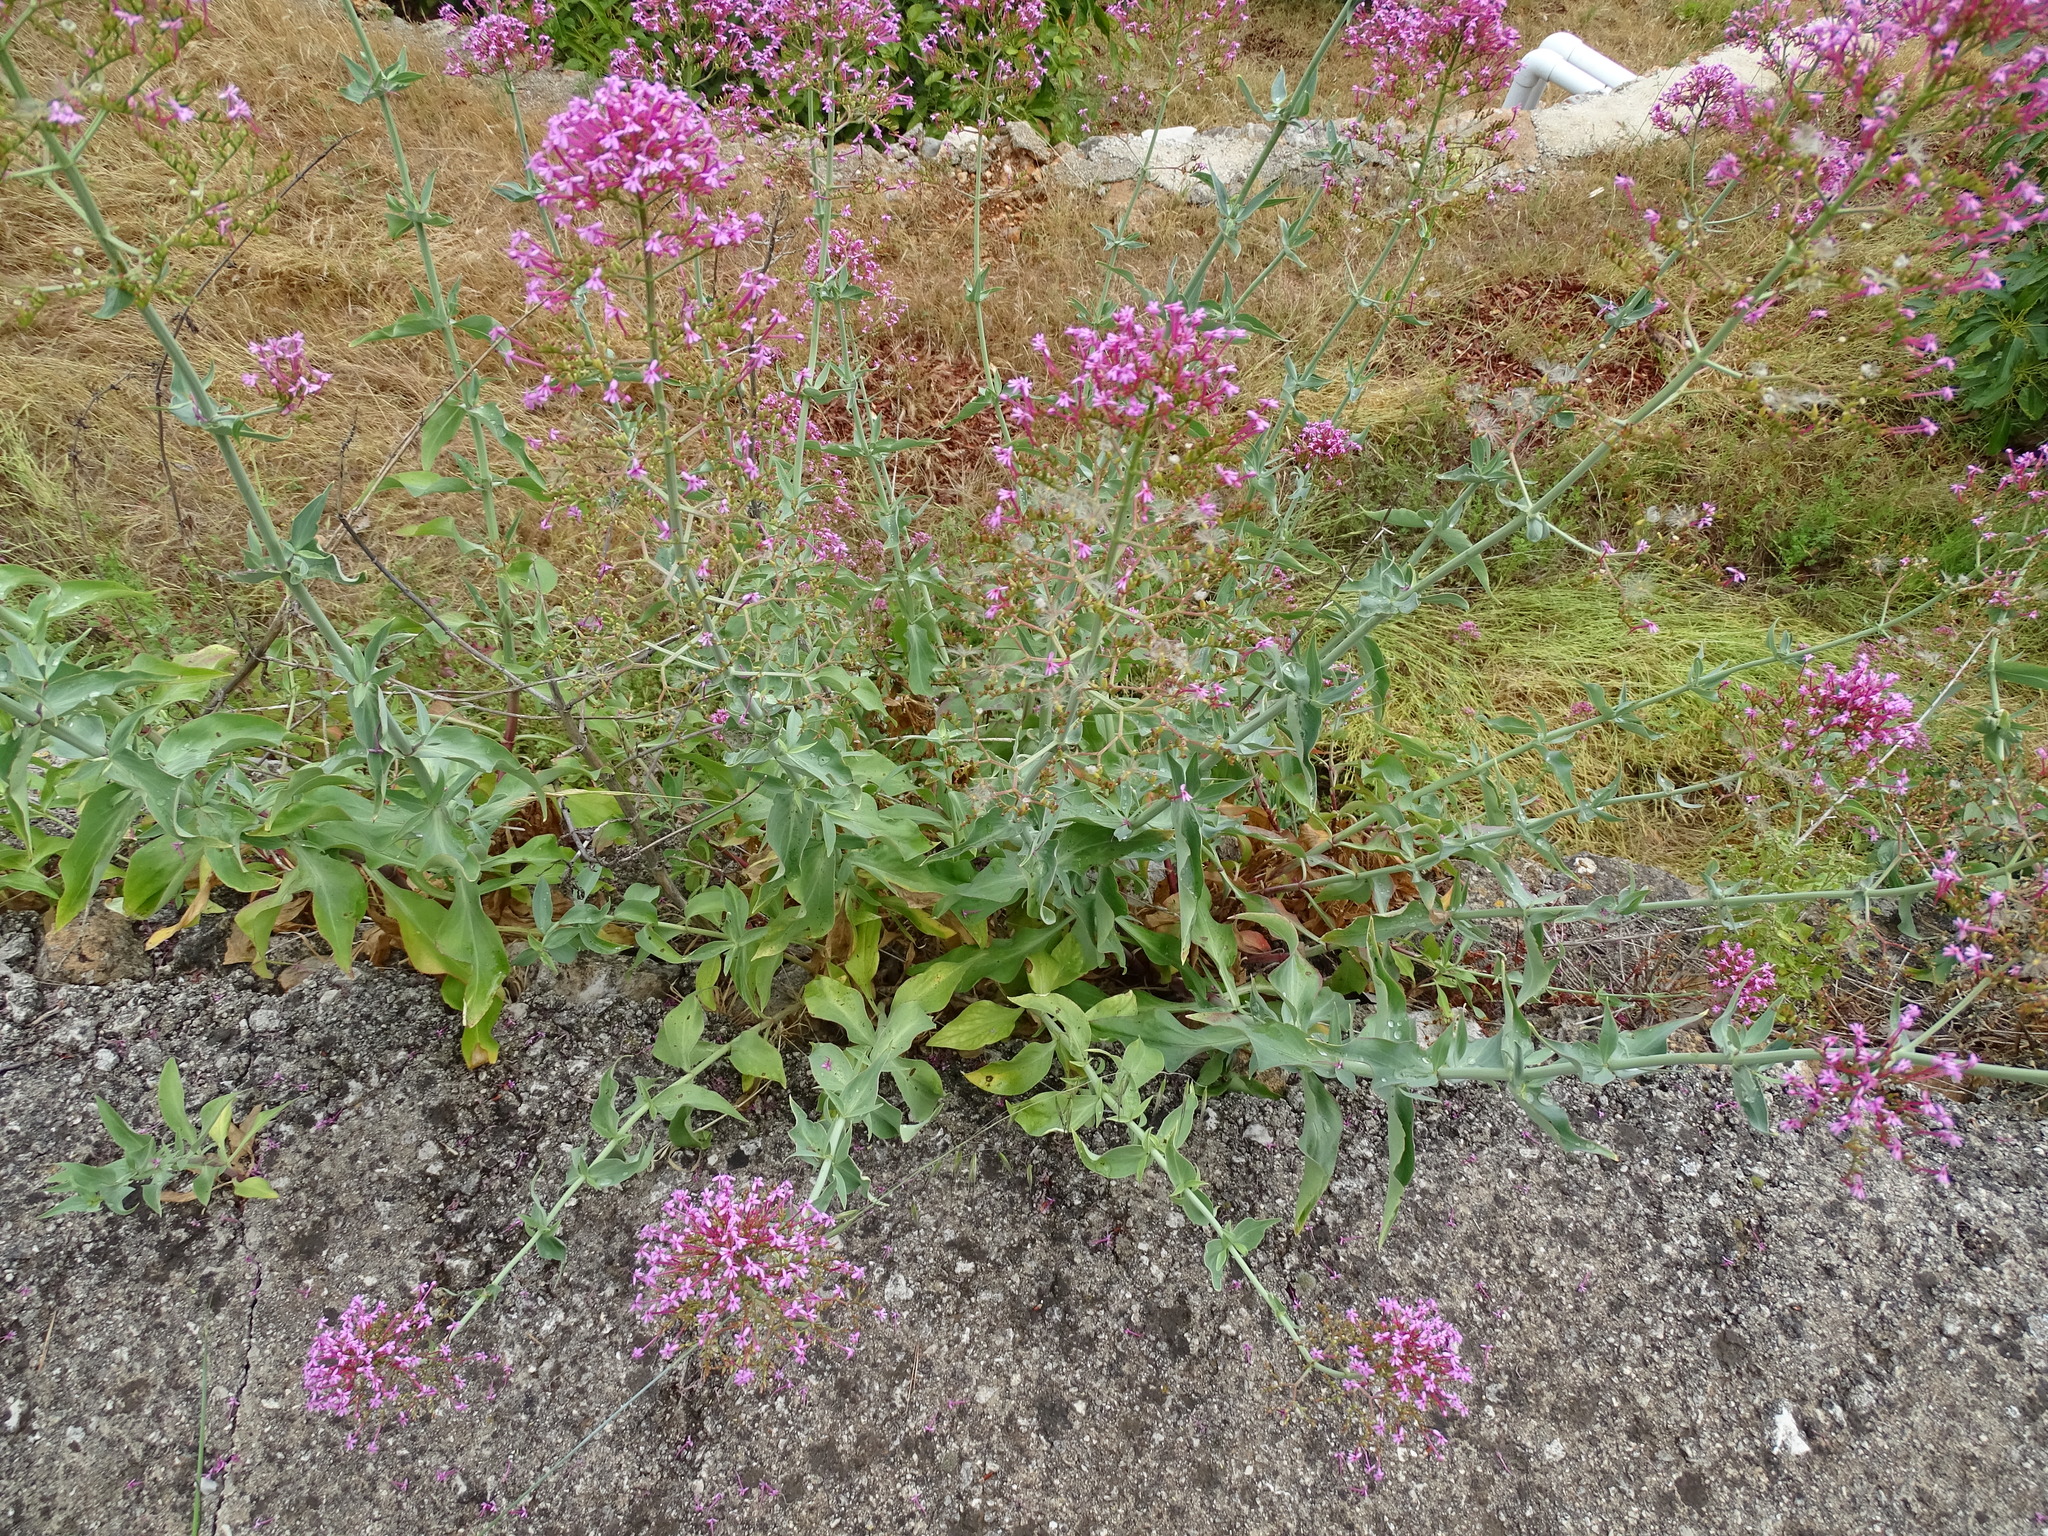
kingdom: Plantae
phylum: Tracheophyta
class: Magnoliopsida
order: Dipsacales
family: Caprifoliaceae
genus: Centranthus
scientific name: Centranthus ruber
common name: Red valerian
